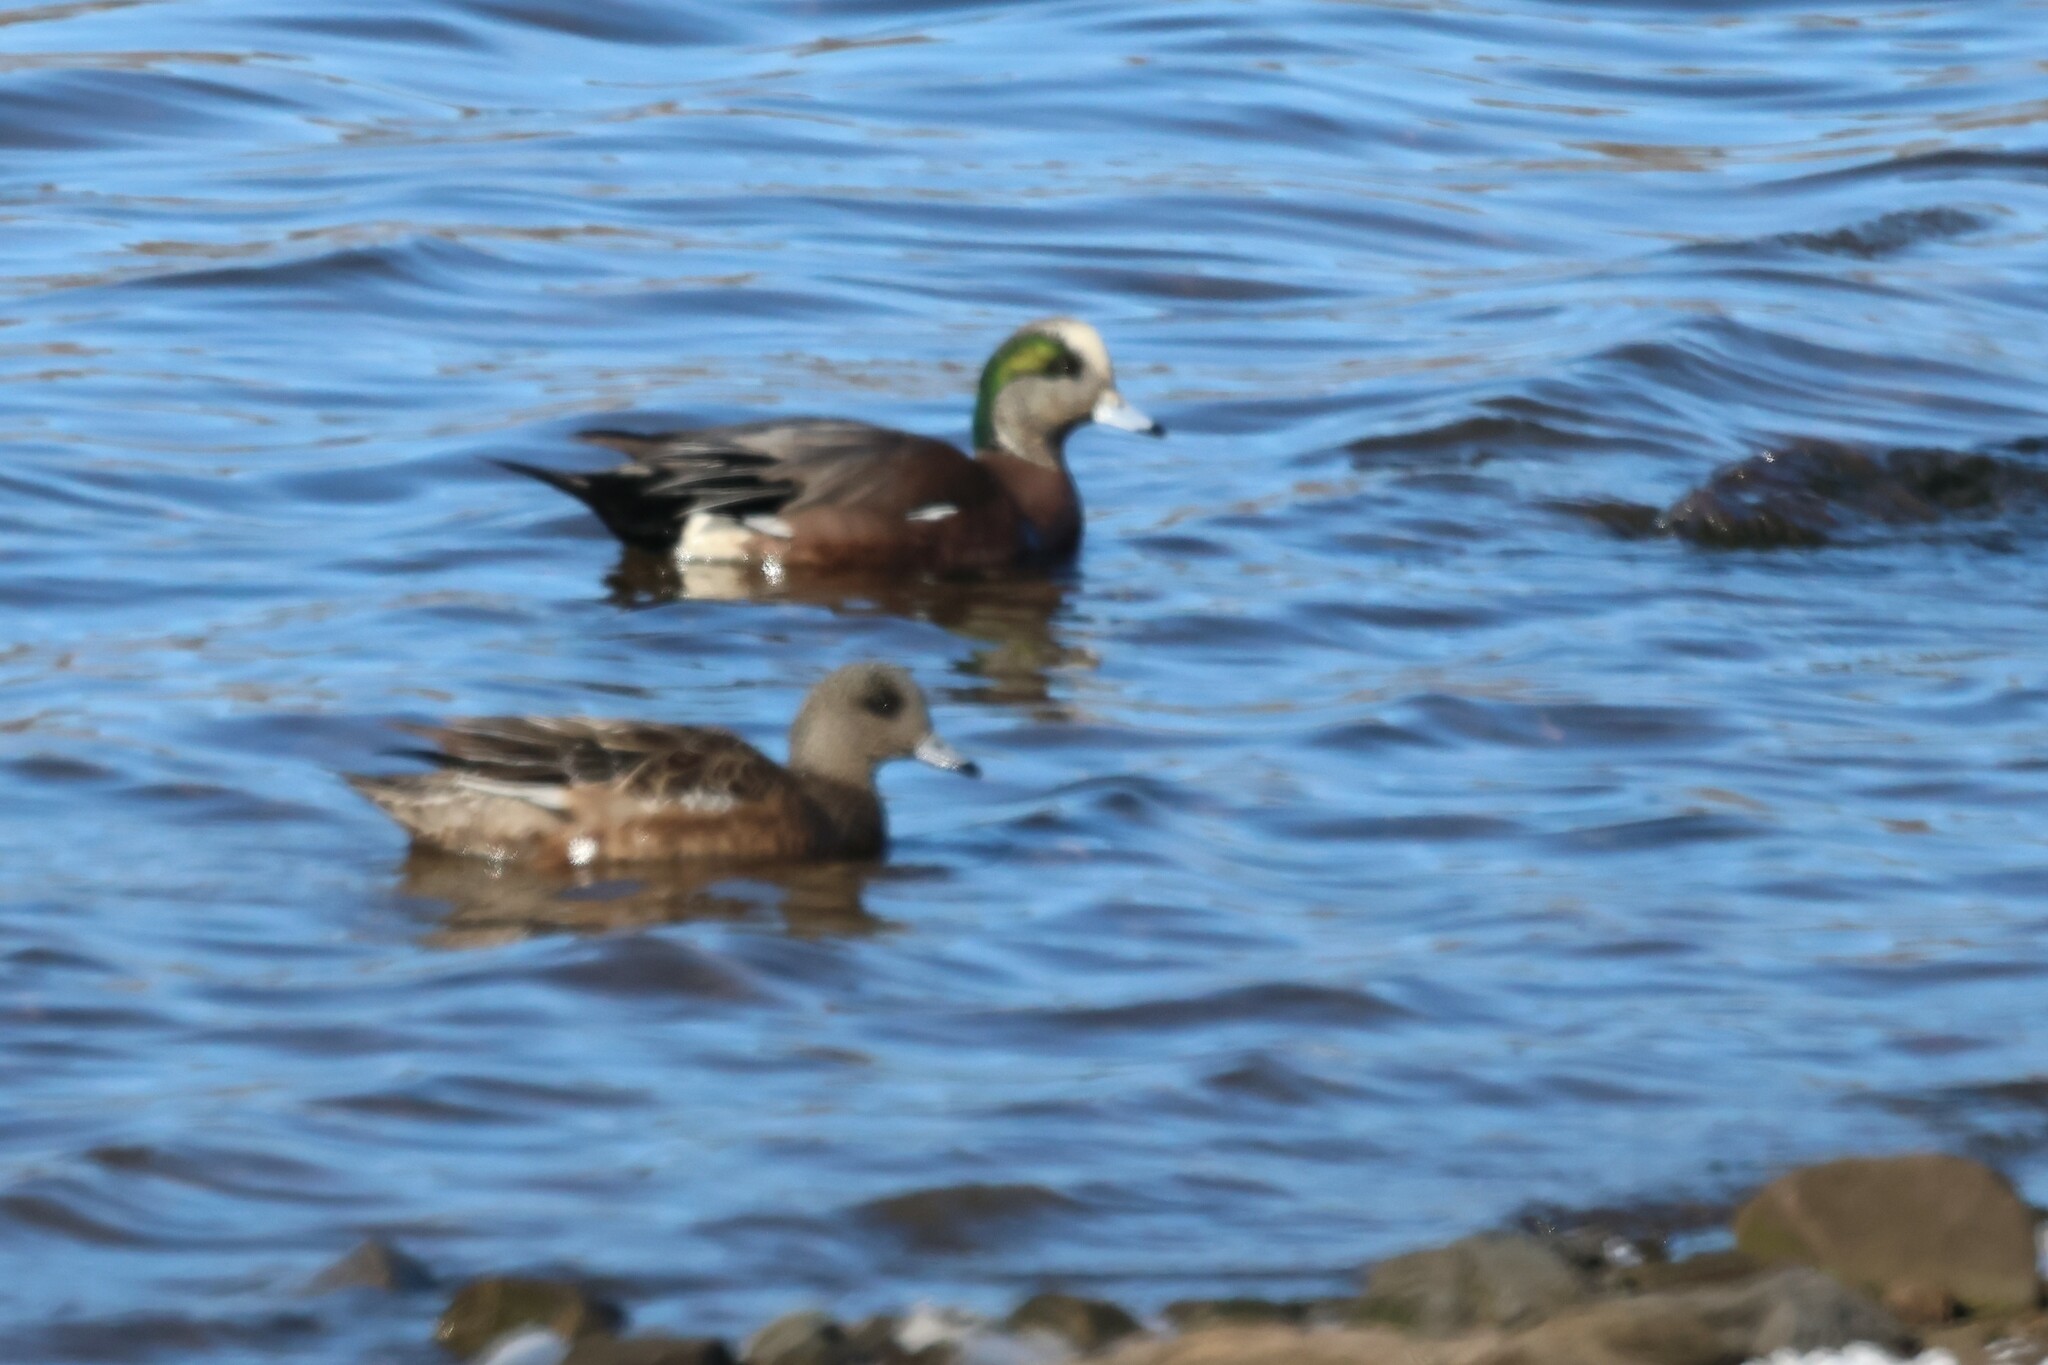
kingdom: Animalia
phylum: Chordata
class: Aves
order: Anseriformes
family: Anatidae
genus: Mareca
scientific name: Mareca americana
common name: American wigeon
